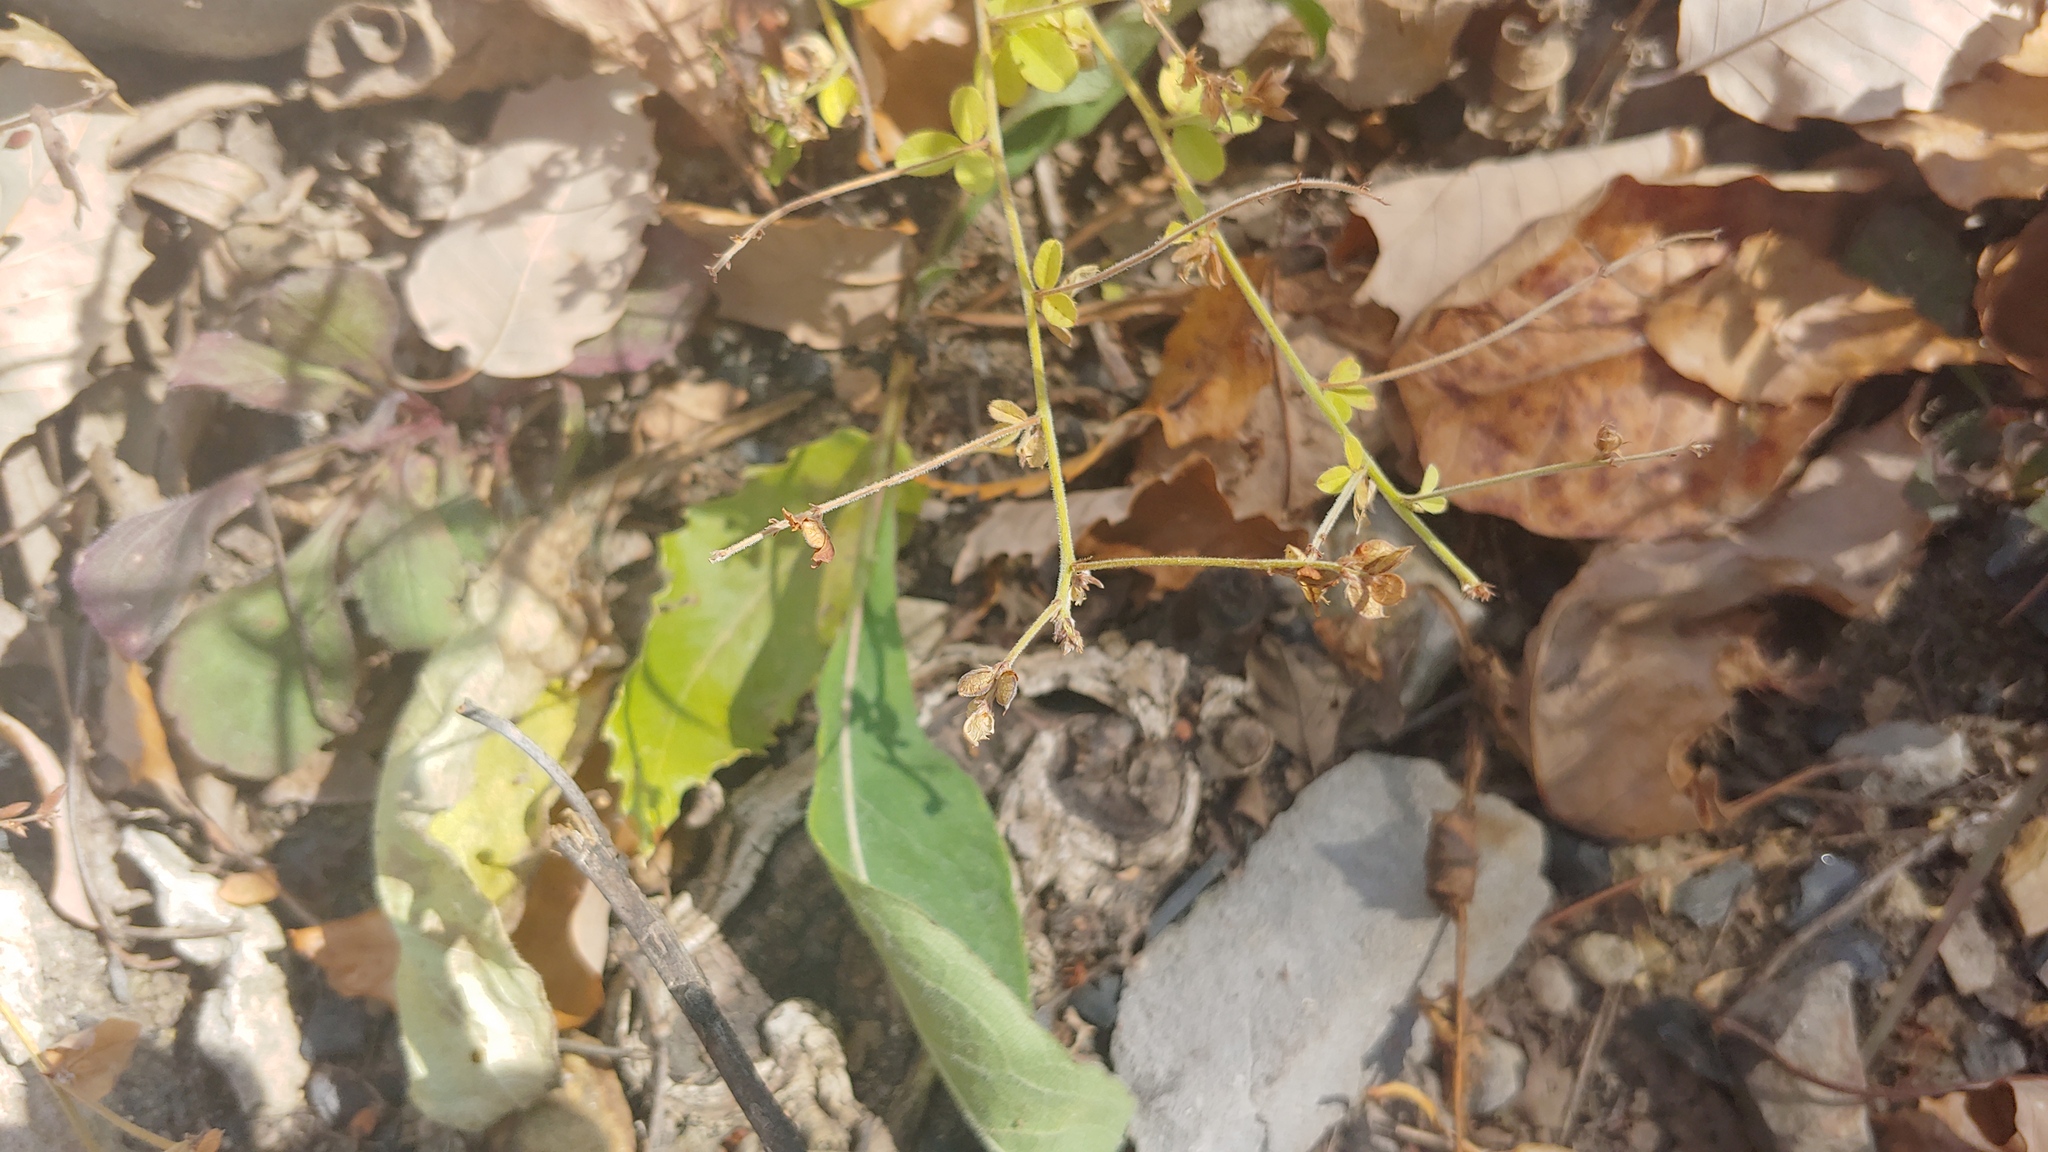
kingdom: Plantae
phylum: Tracheophyta
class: Magnoliopsida
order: Fabales
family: Fabaceae
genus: Lespedeza
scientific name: Lespedeza procumbens
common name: Downy trailing bush-clover
